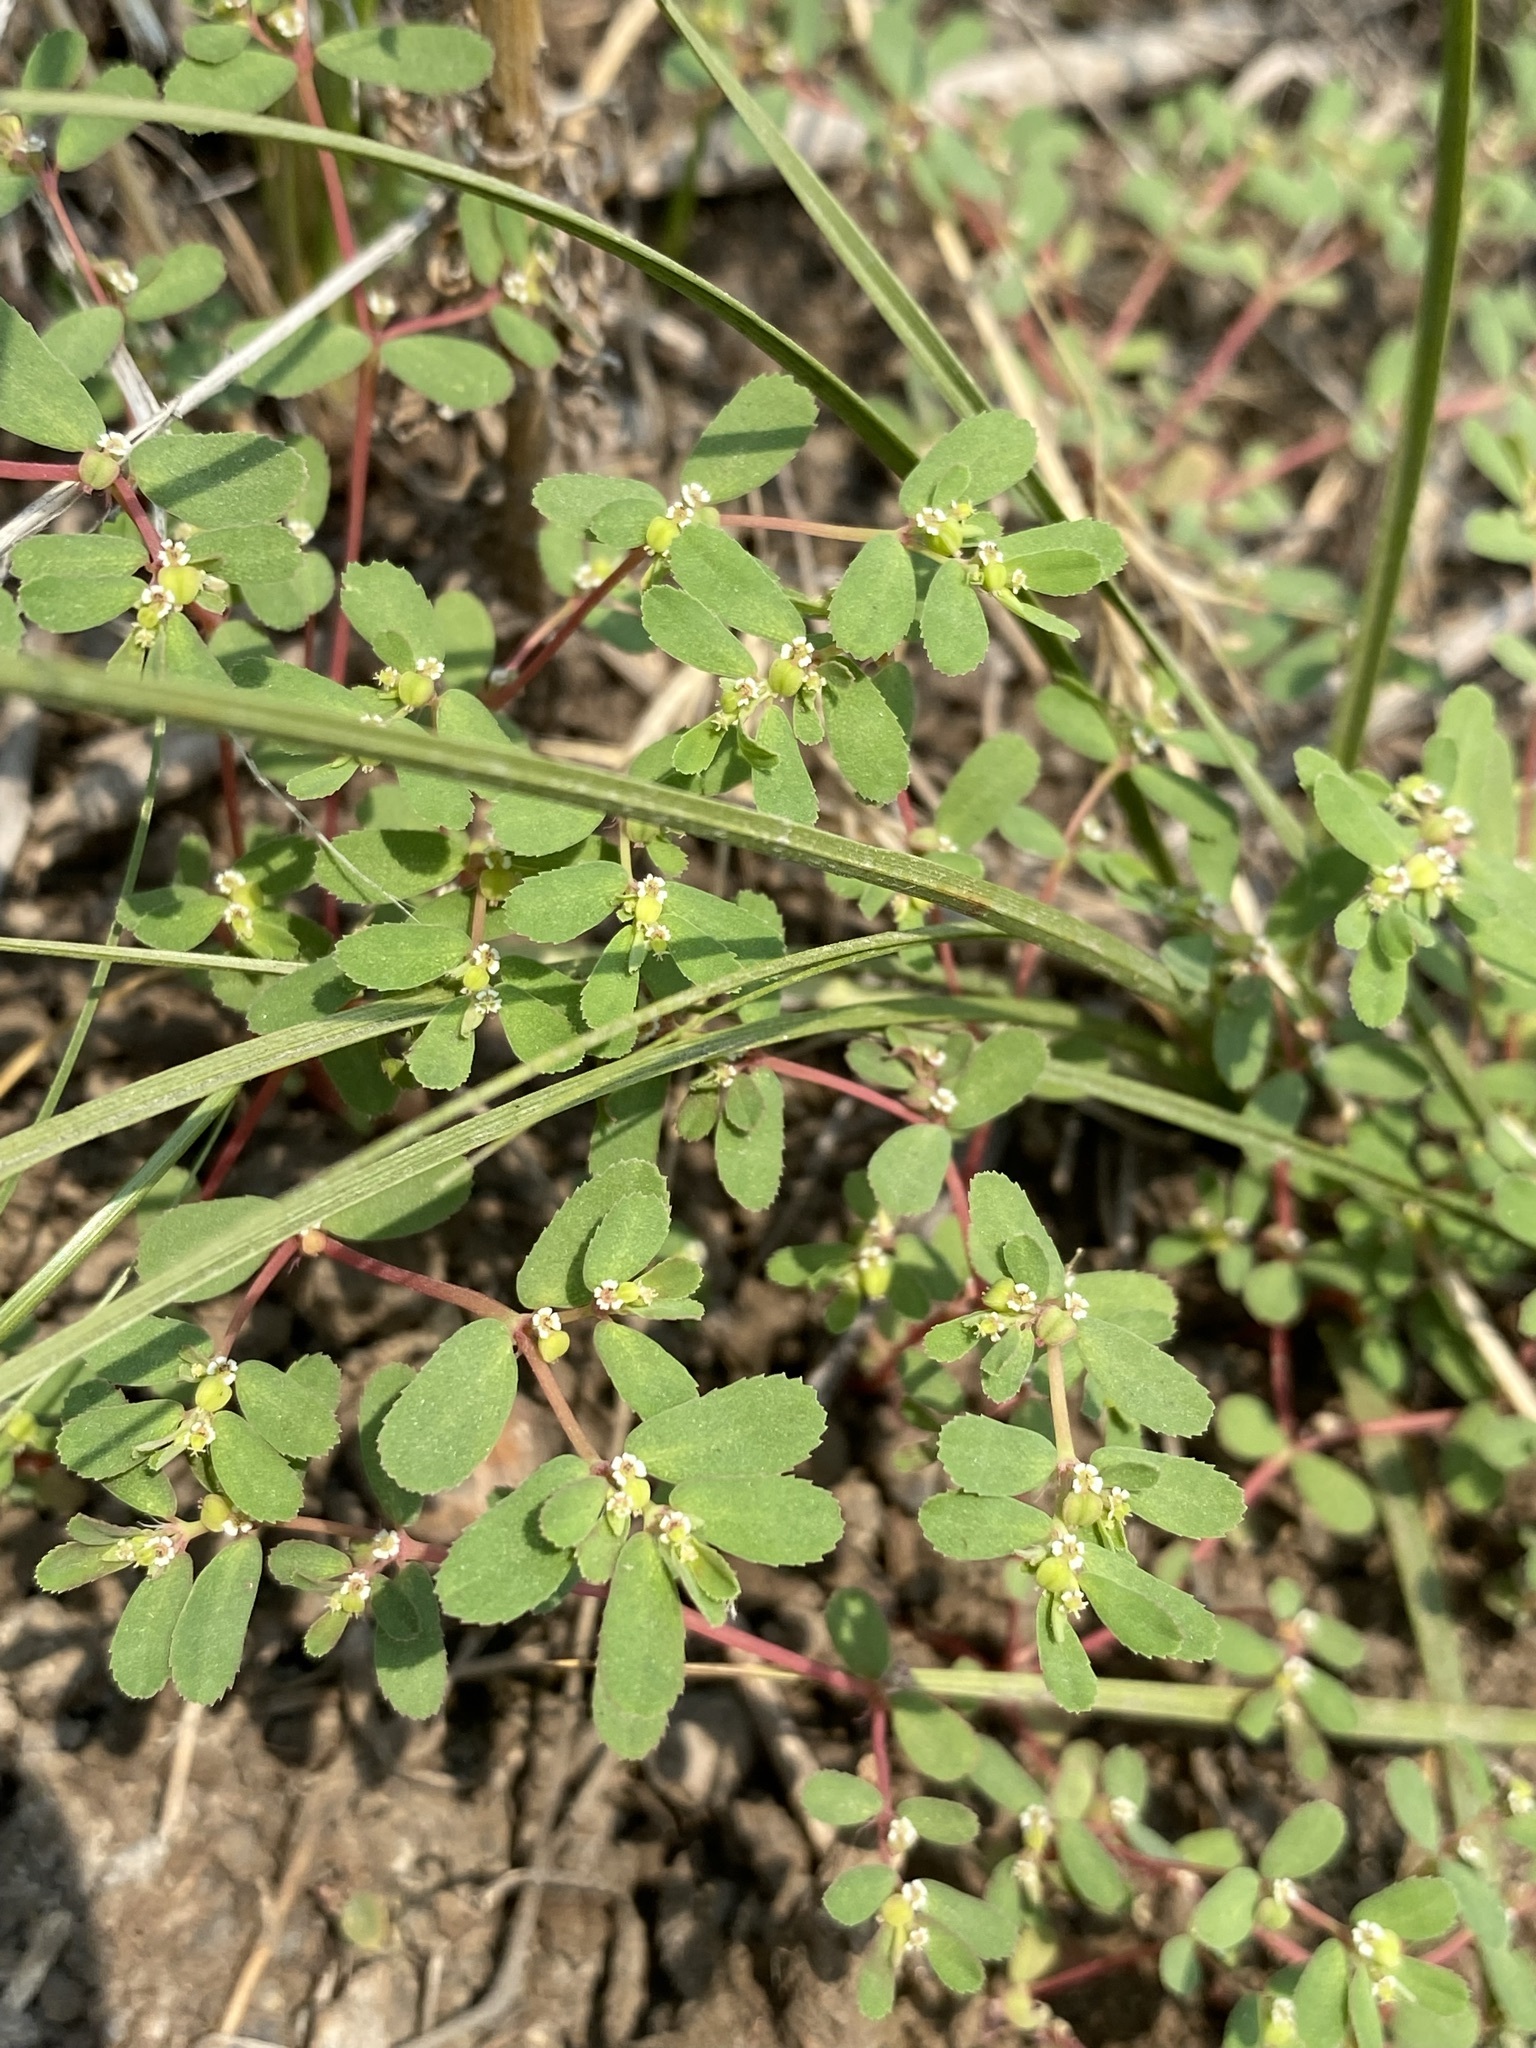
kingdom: Plantae
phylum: Tracheophyta
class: Magnoliopsida
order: Malpighiales
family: Euphorbiaceae
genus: Euphorbia
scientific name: Euphorbia serpillifolia
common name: Thyme-leaf spurge
